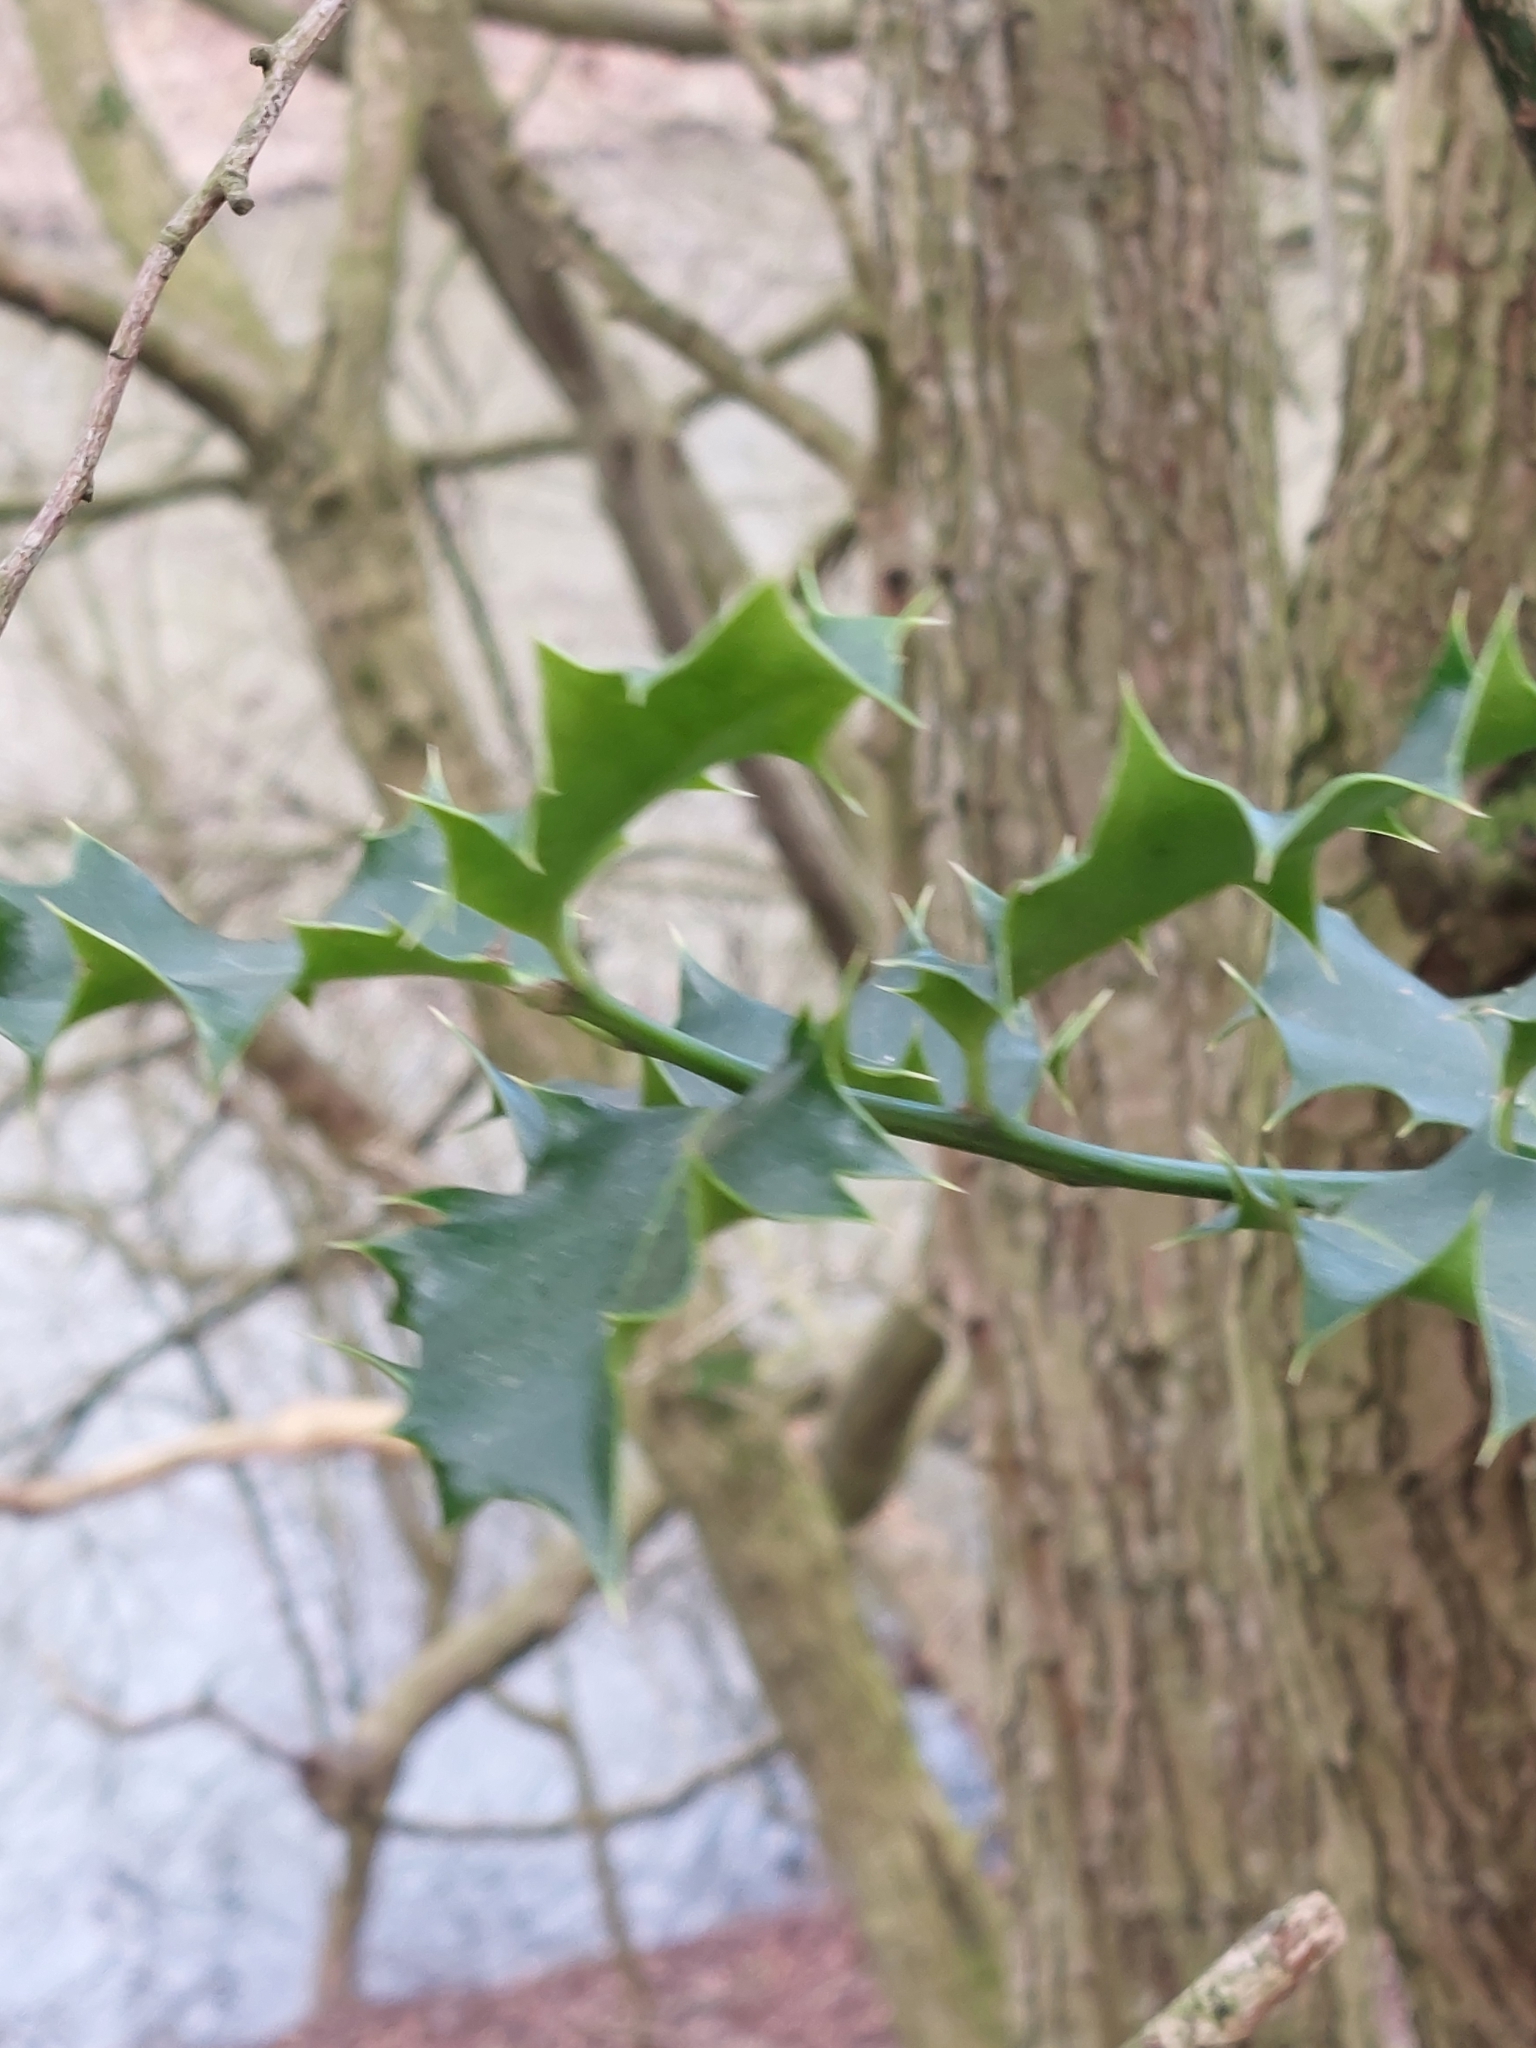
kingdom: Plantae
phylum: Tracheophyta
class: Magnoliopsida
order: Aquifoliales
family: Aquifoliaceae
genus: Ilex
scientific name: Ilex aquifolium
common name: English holly
